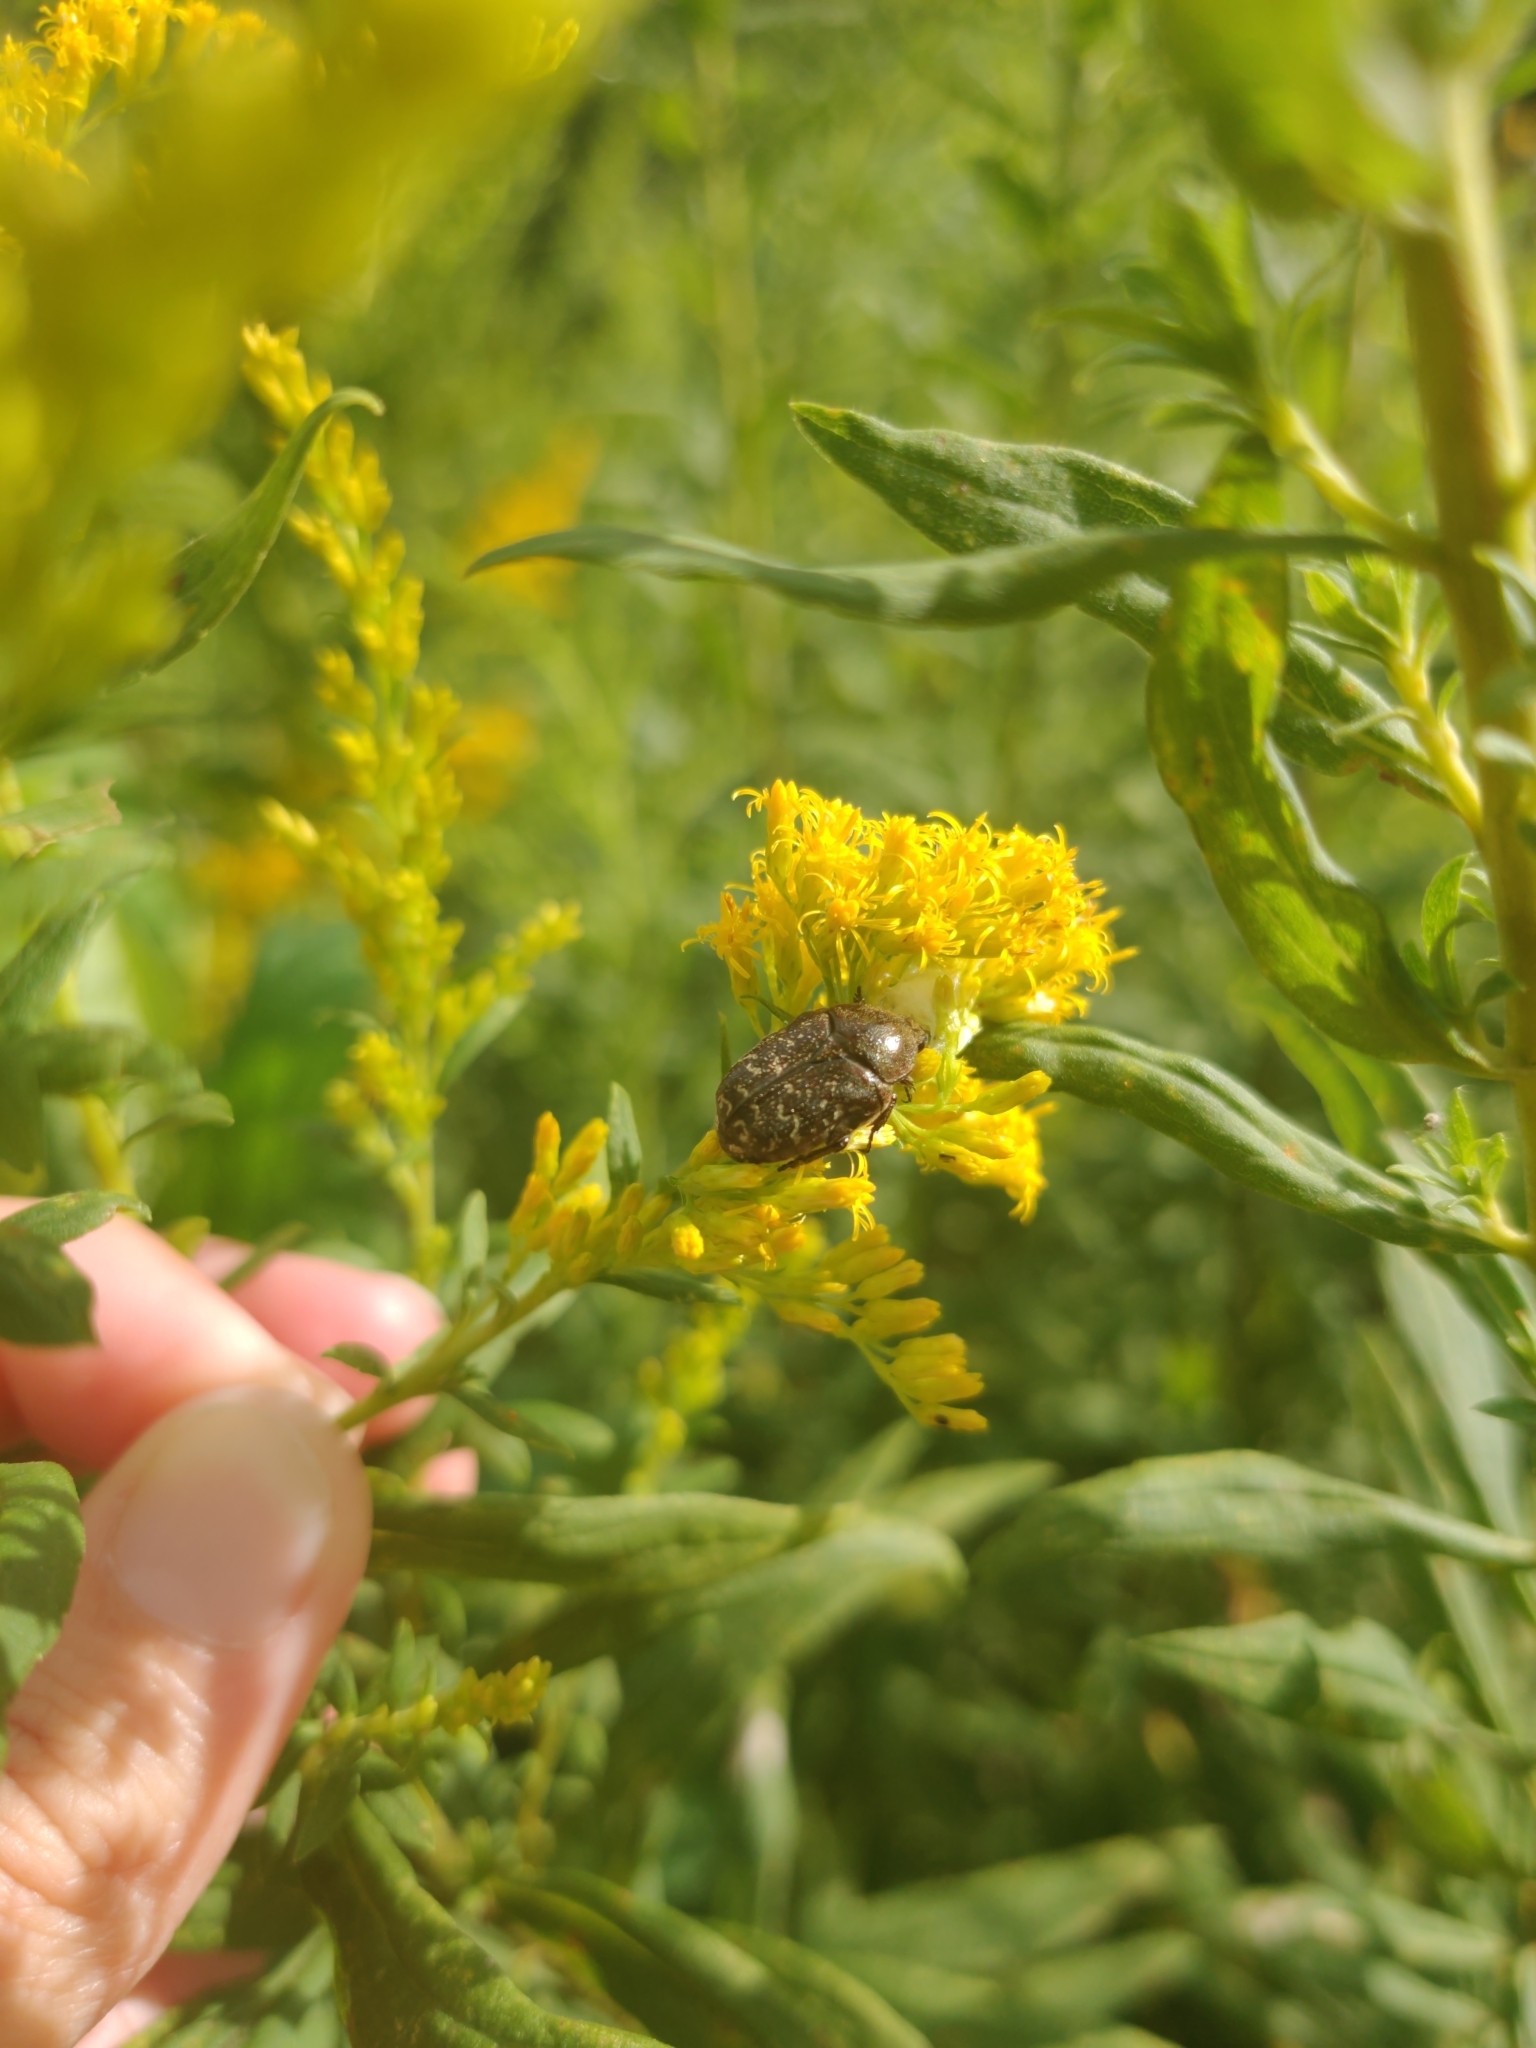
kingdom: Animalia
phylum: Arthropoda
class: Insecta
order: Coleoptera
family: Scarabaeidae
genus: Euphoria
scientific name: Euphoria sepulcralis
